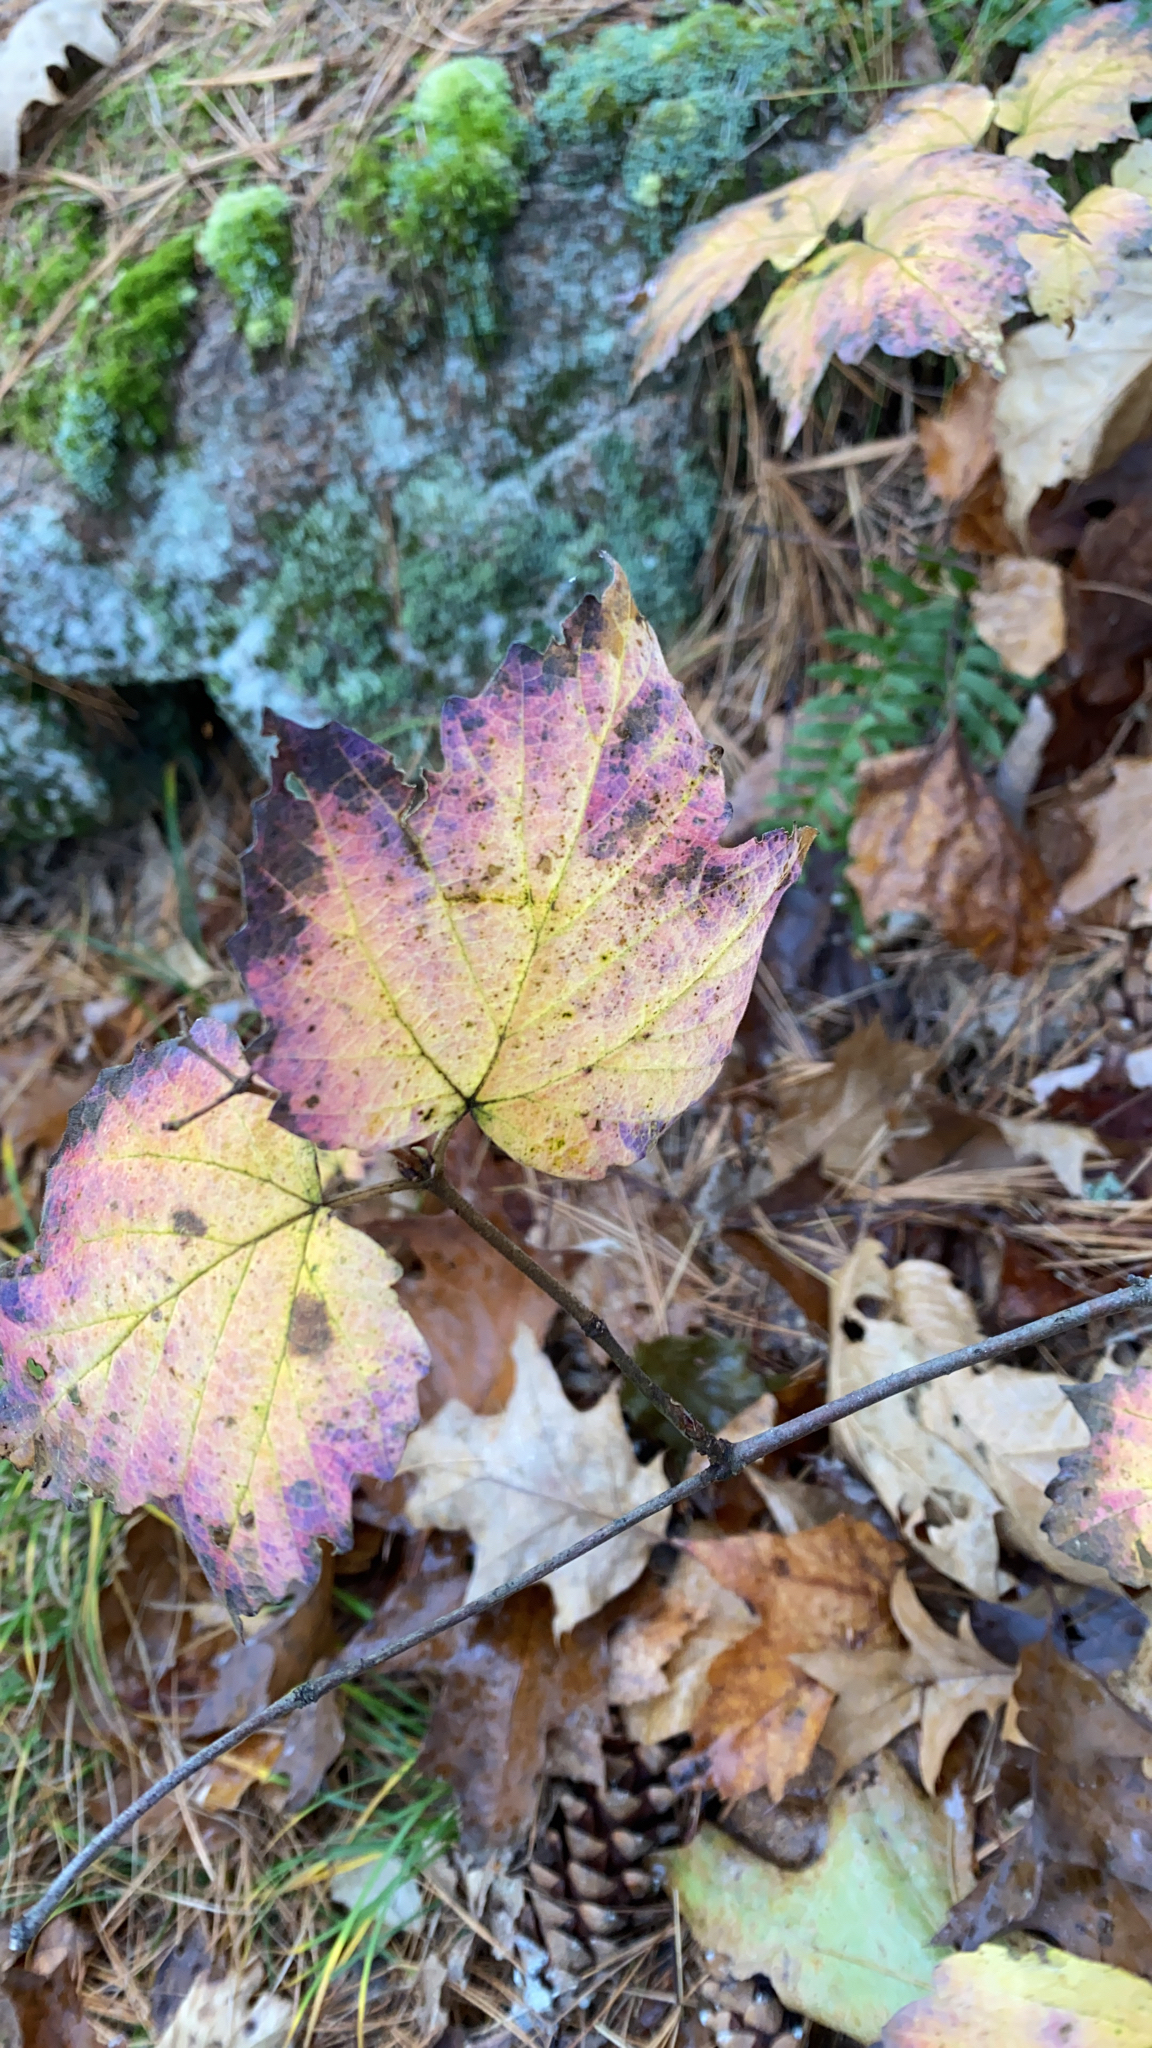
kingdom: Plantae
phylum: Tracheophyta
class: Magnoliopsida
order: Dipsacales
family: Viburnaceae
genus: Viburnum
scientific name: Viburnum acerifolium
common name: Dockmackie
